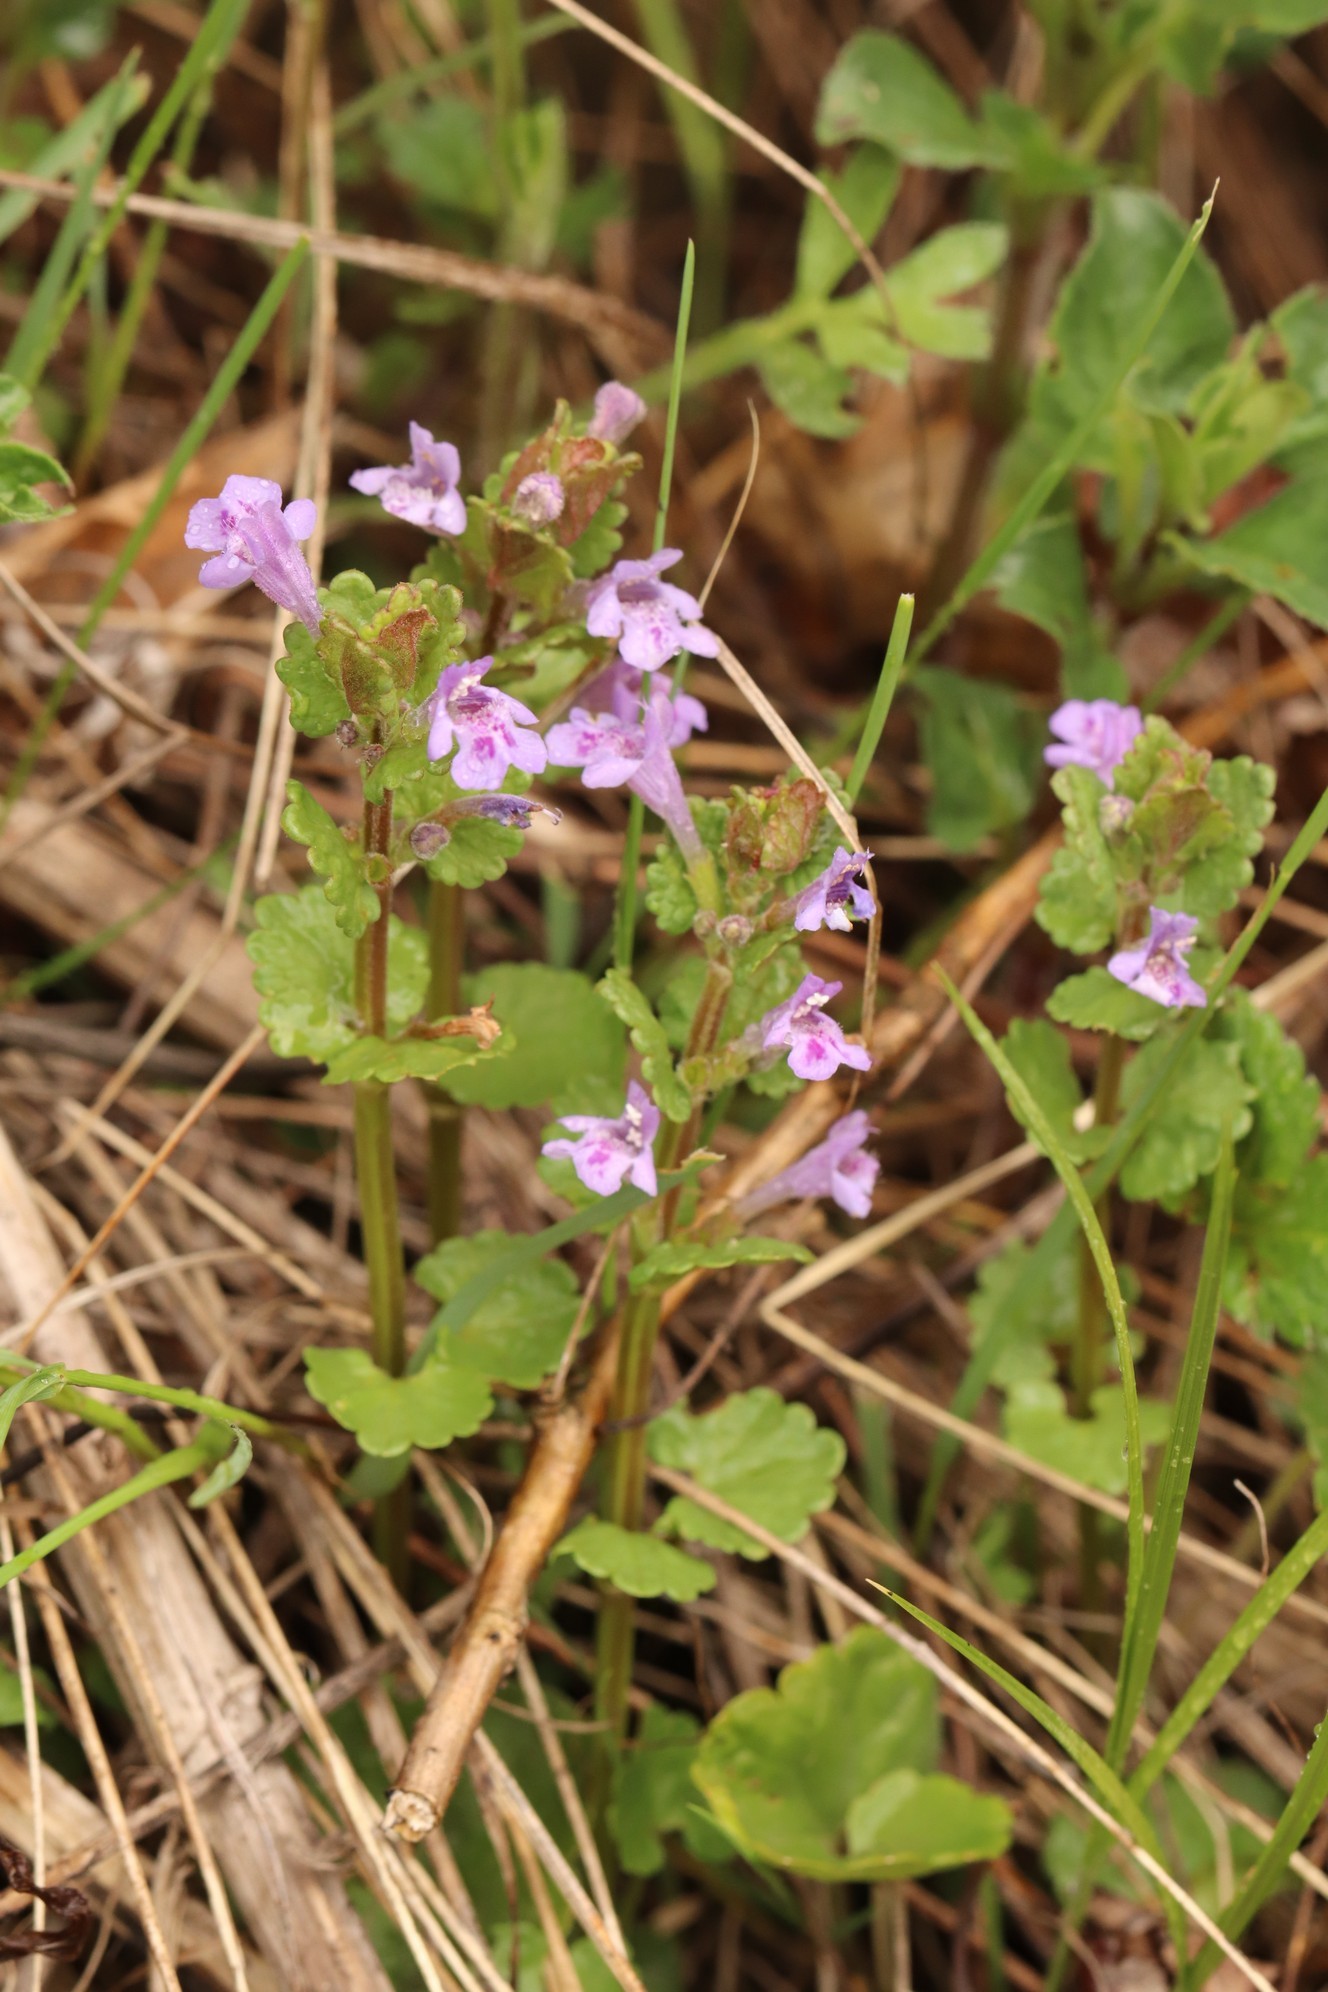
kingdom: Plantae
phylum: Tracheophyta
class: Magnoliopsida
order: Lamiales
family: Lamiaceae
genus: Glechoma
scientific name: Glechoma hederacea
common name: Ground ivy
